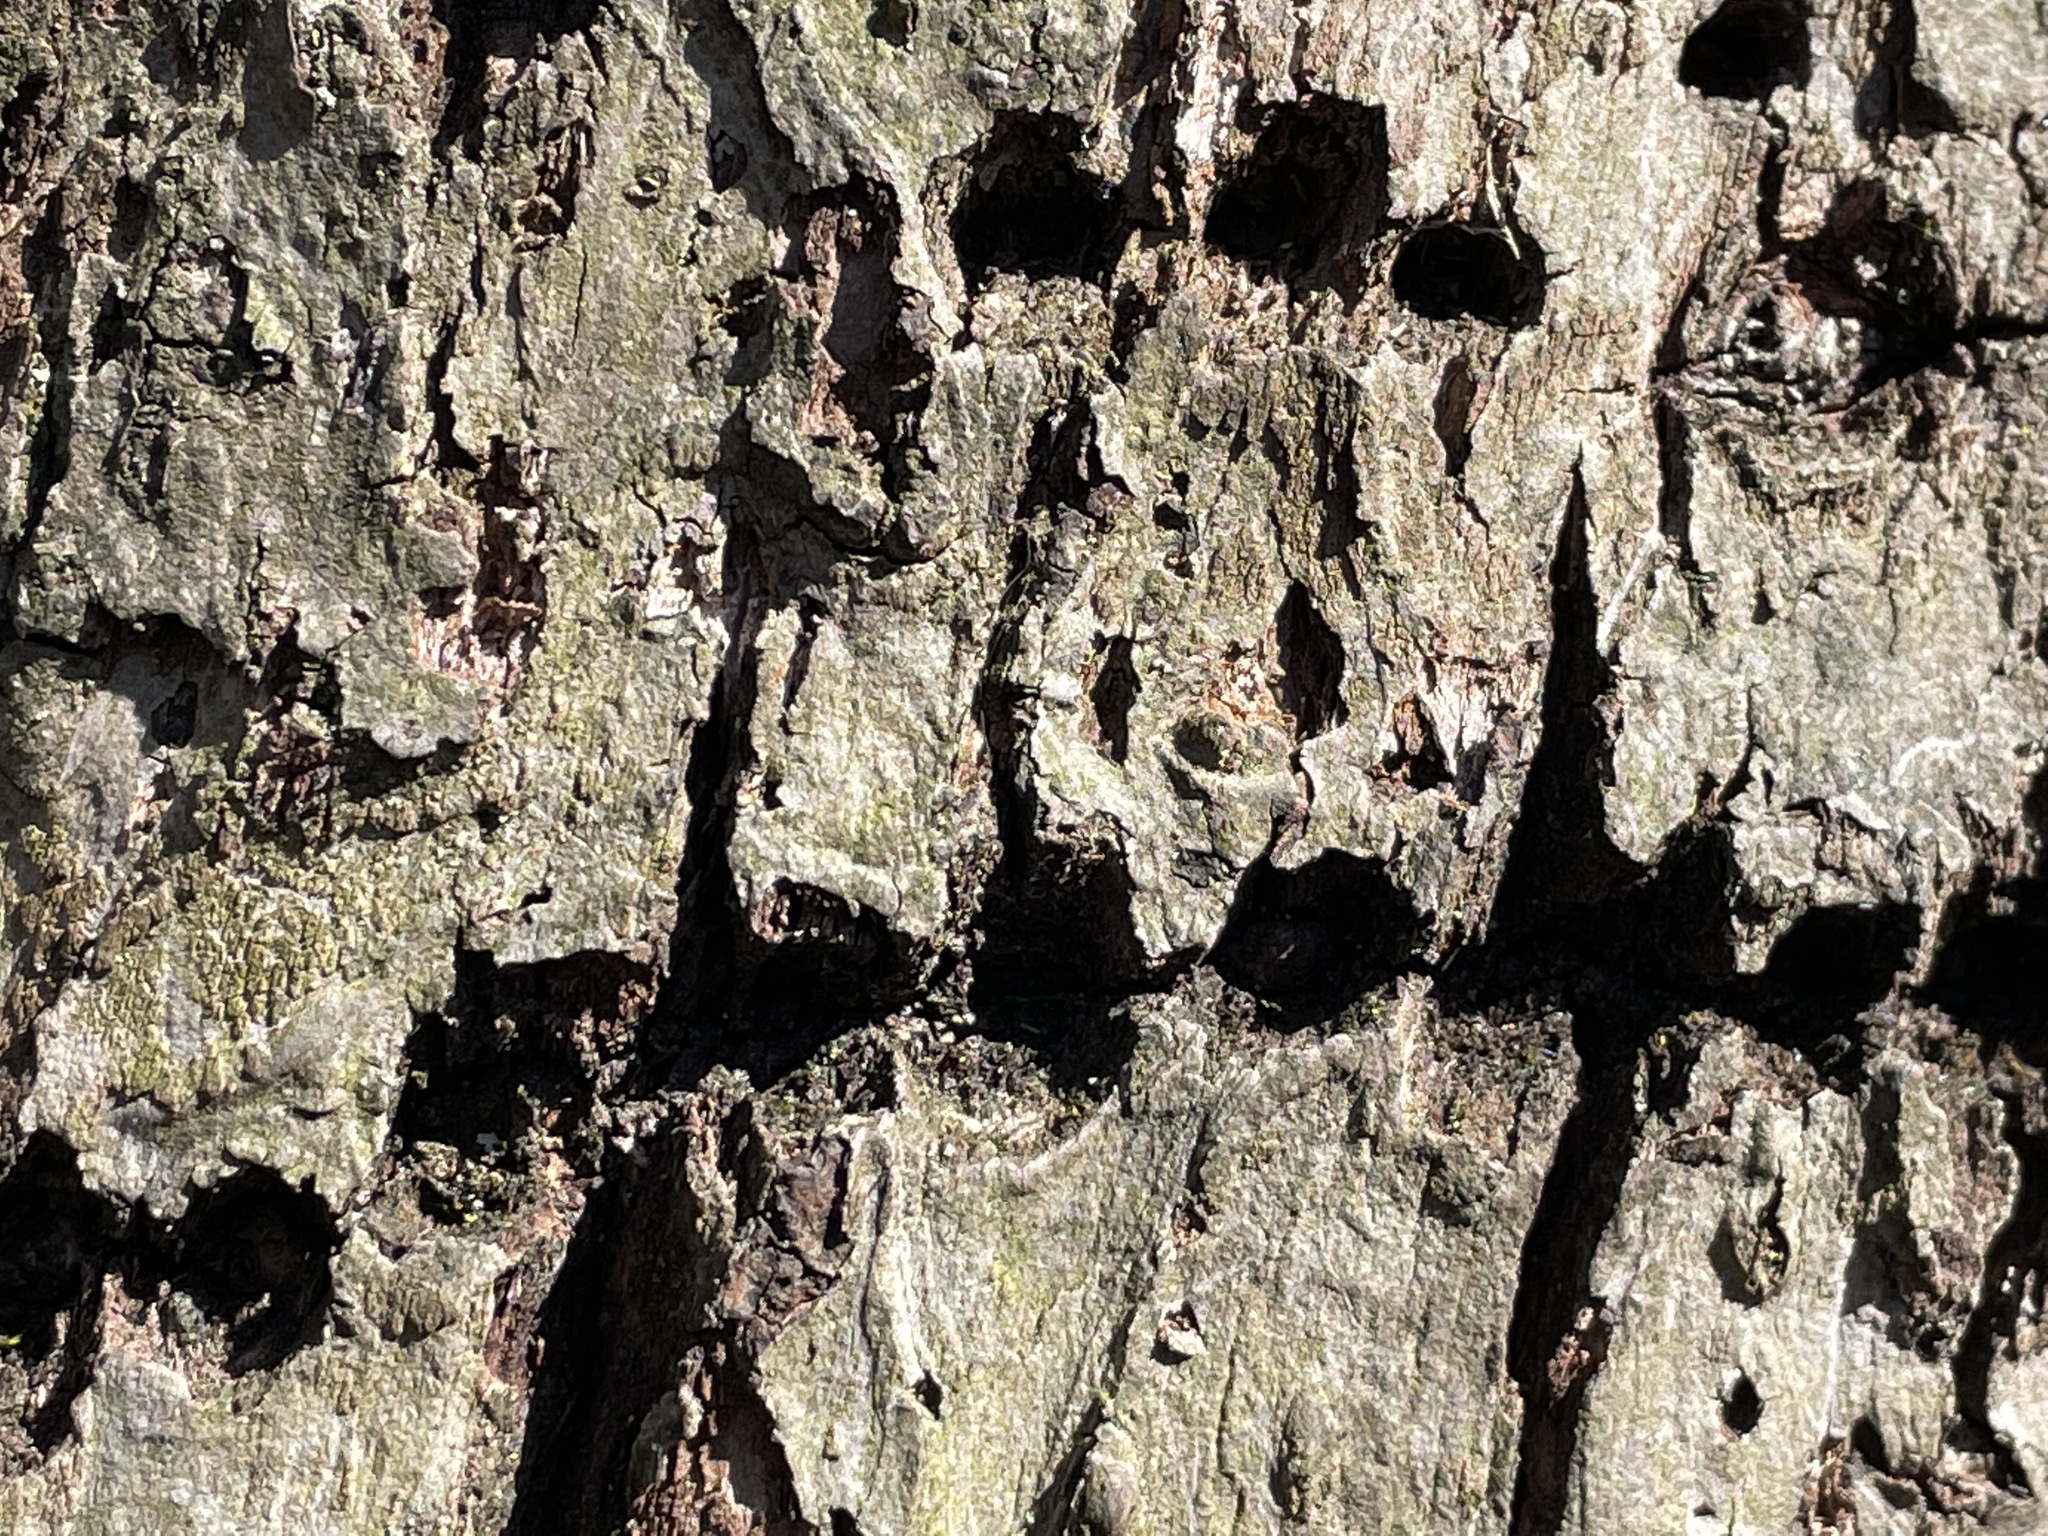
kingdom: Animalia
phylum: Chordata
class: Aves
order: Piciformes
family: Picidae
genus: Sphyrapicus
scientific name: Sphyrapicus varius
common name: Yellow-bellied sapsucker
